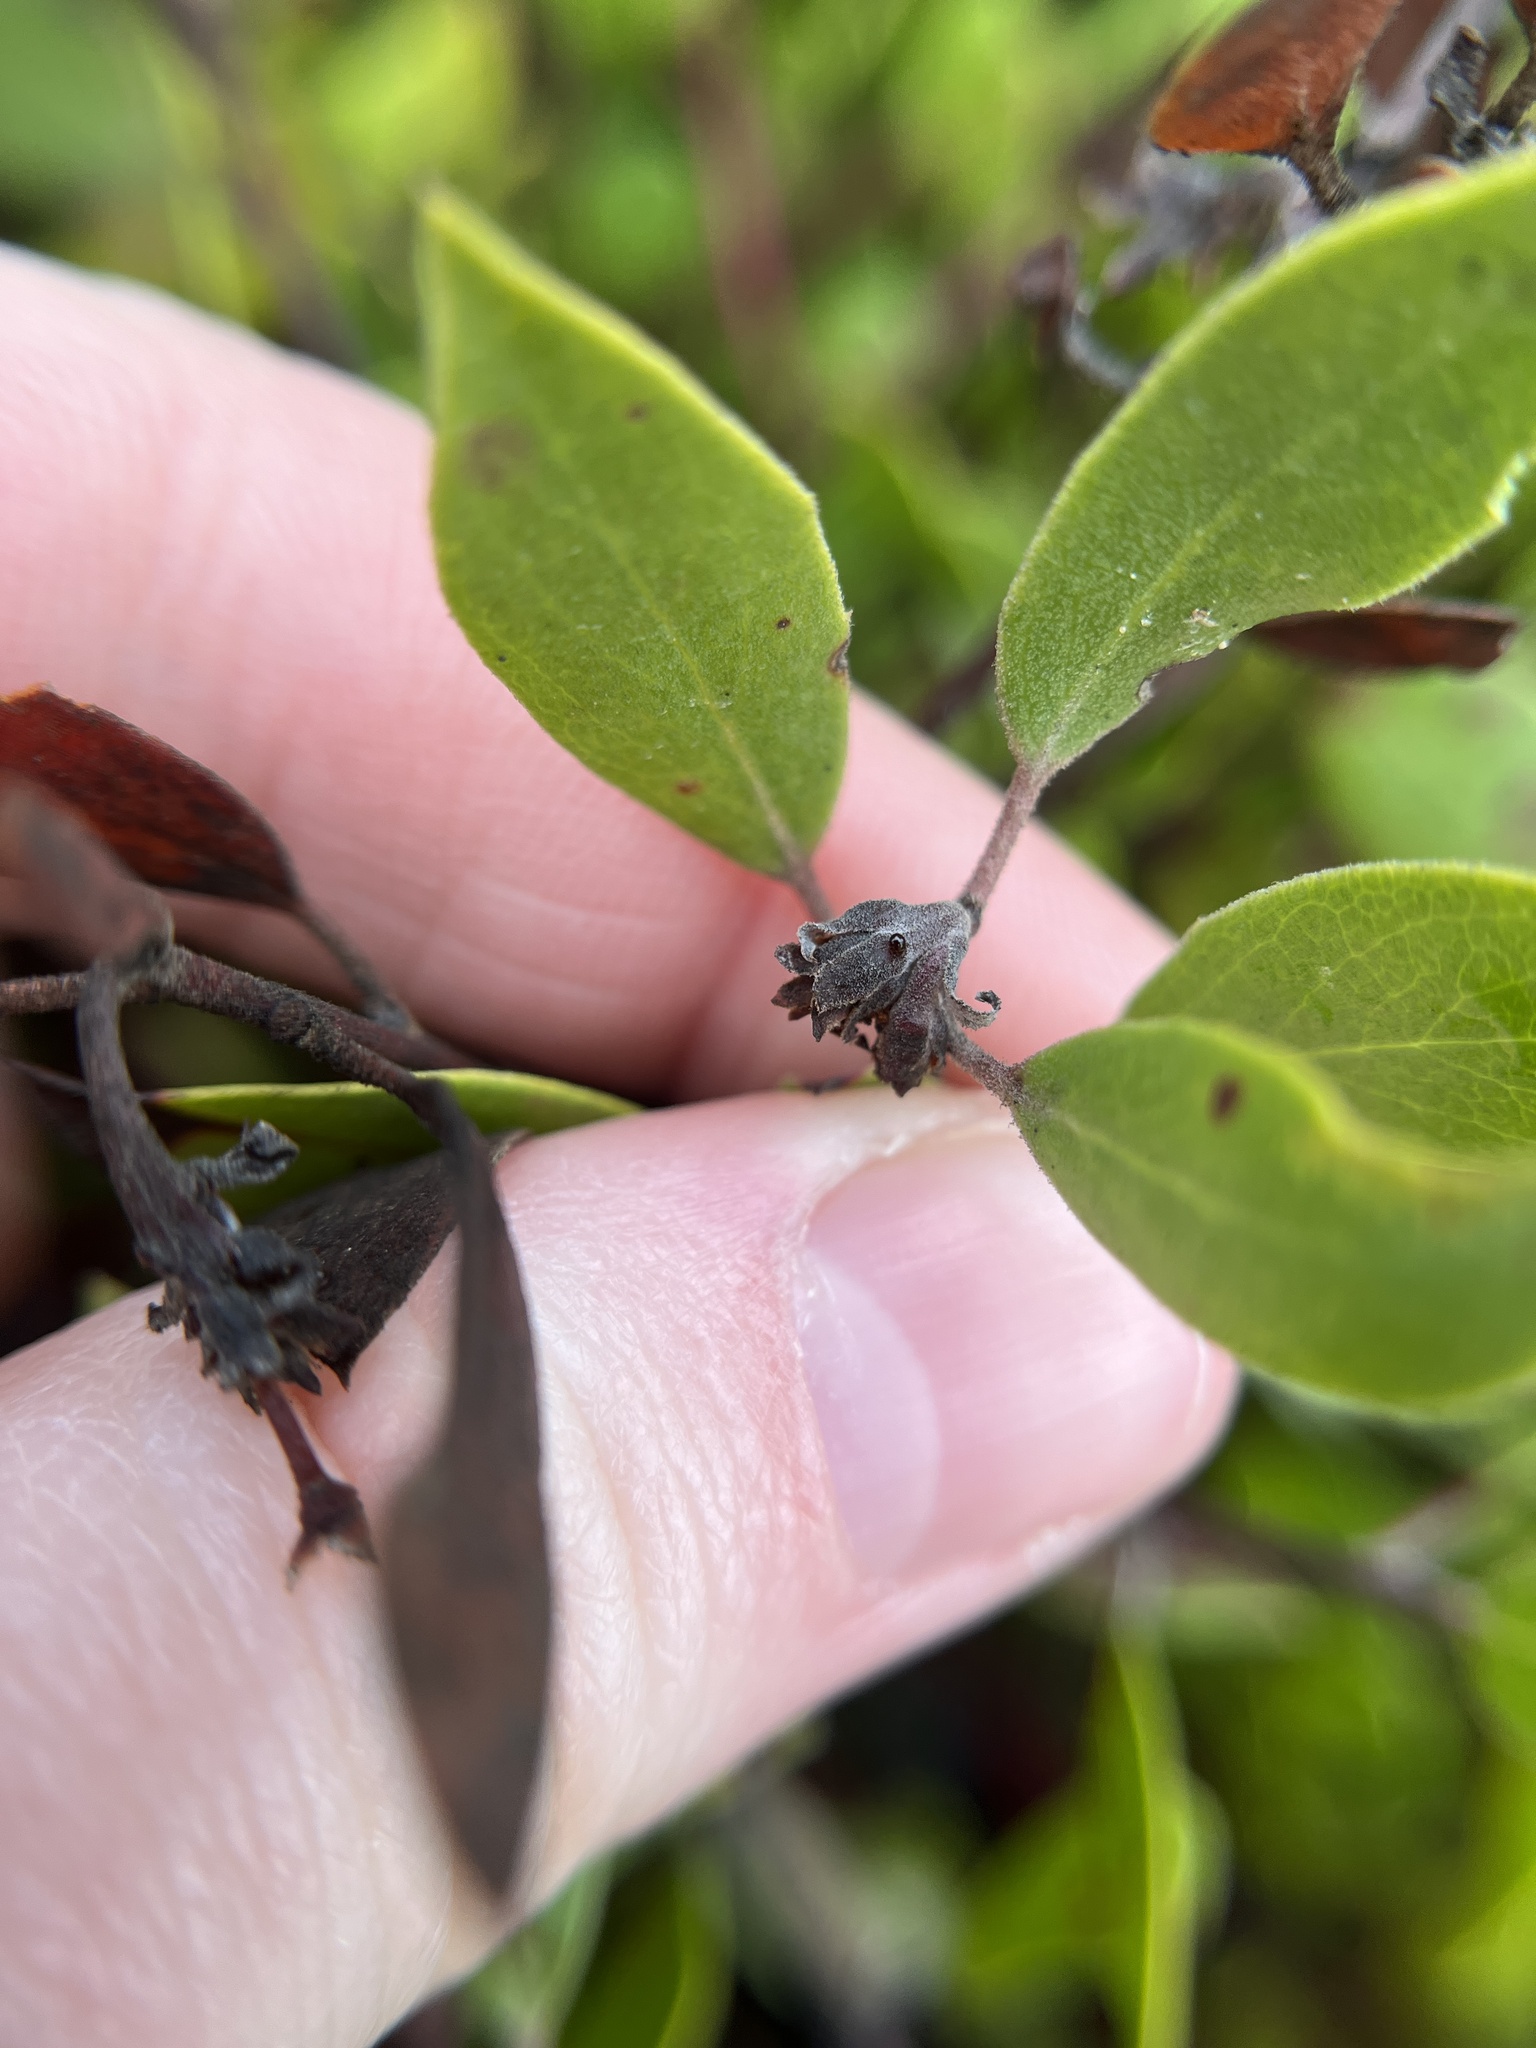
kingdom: Plantae
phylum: Tracheophyta
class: Magnoliopsida
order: Ericales
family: Ericaceae
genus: Arctostaphylos
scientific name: Arctostaphylos hookeri
